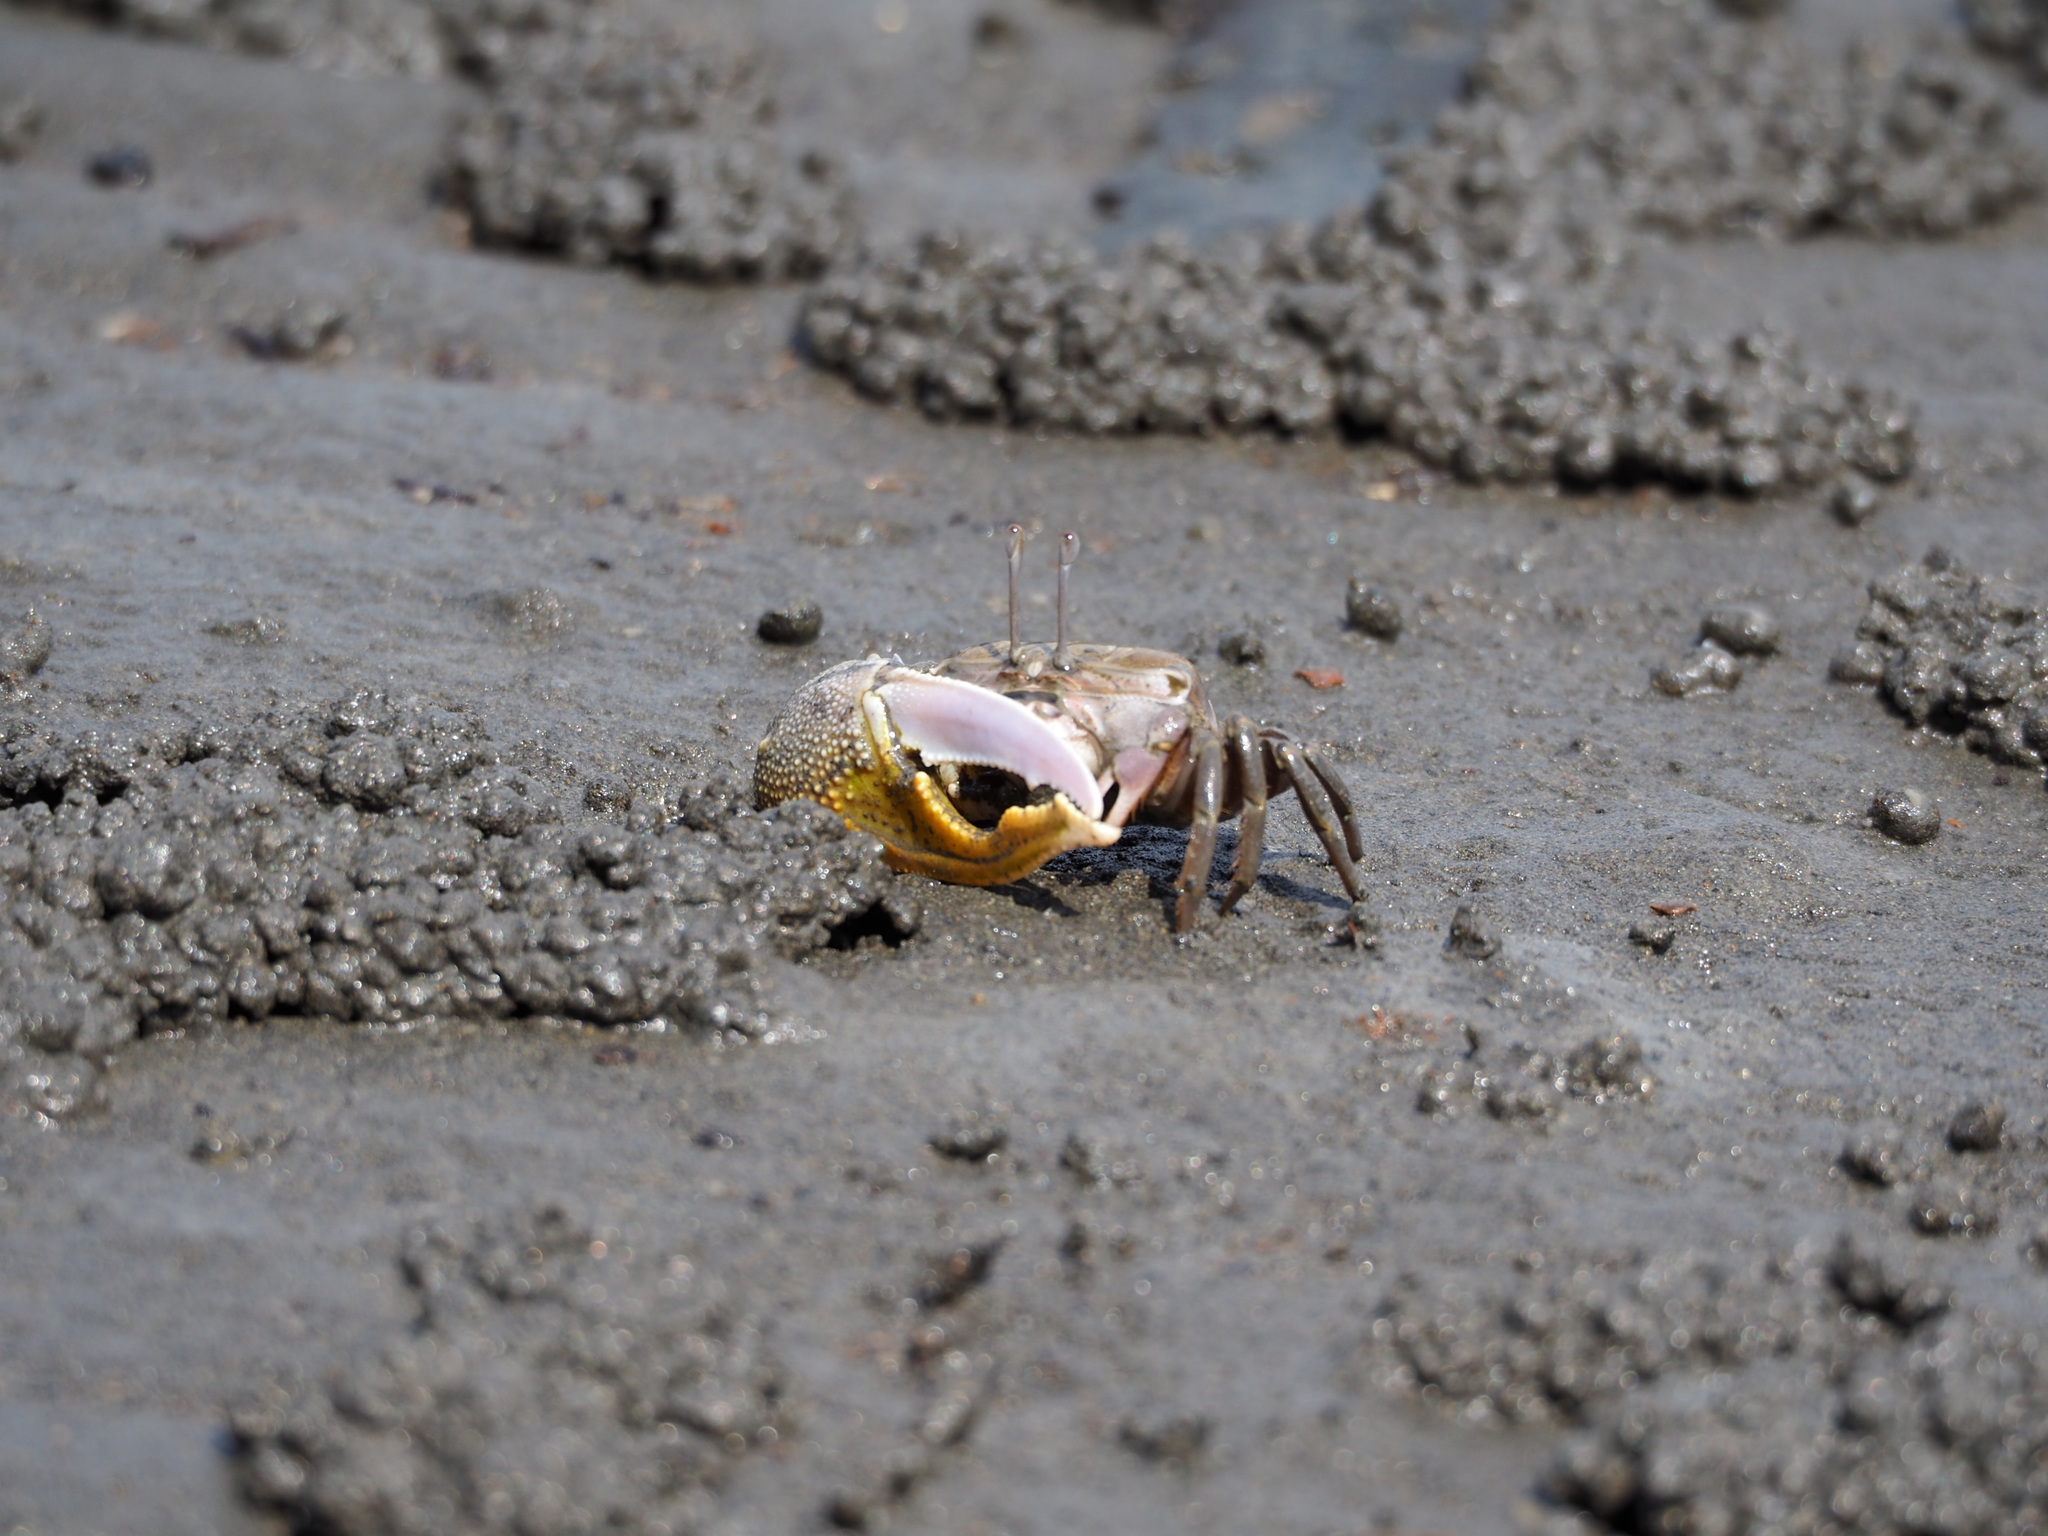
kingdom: Animalia
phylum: Arthropoda
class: Malacostraca
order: Decapoda
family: Ocypodidae
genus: Gelasimus
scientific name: Gelasimus borealis
